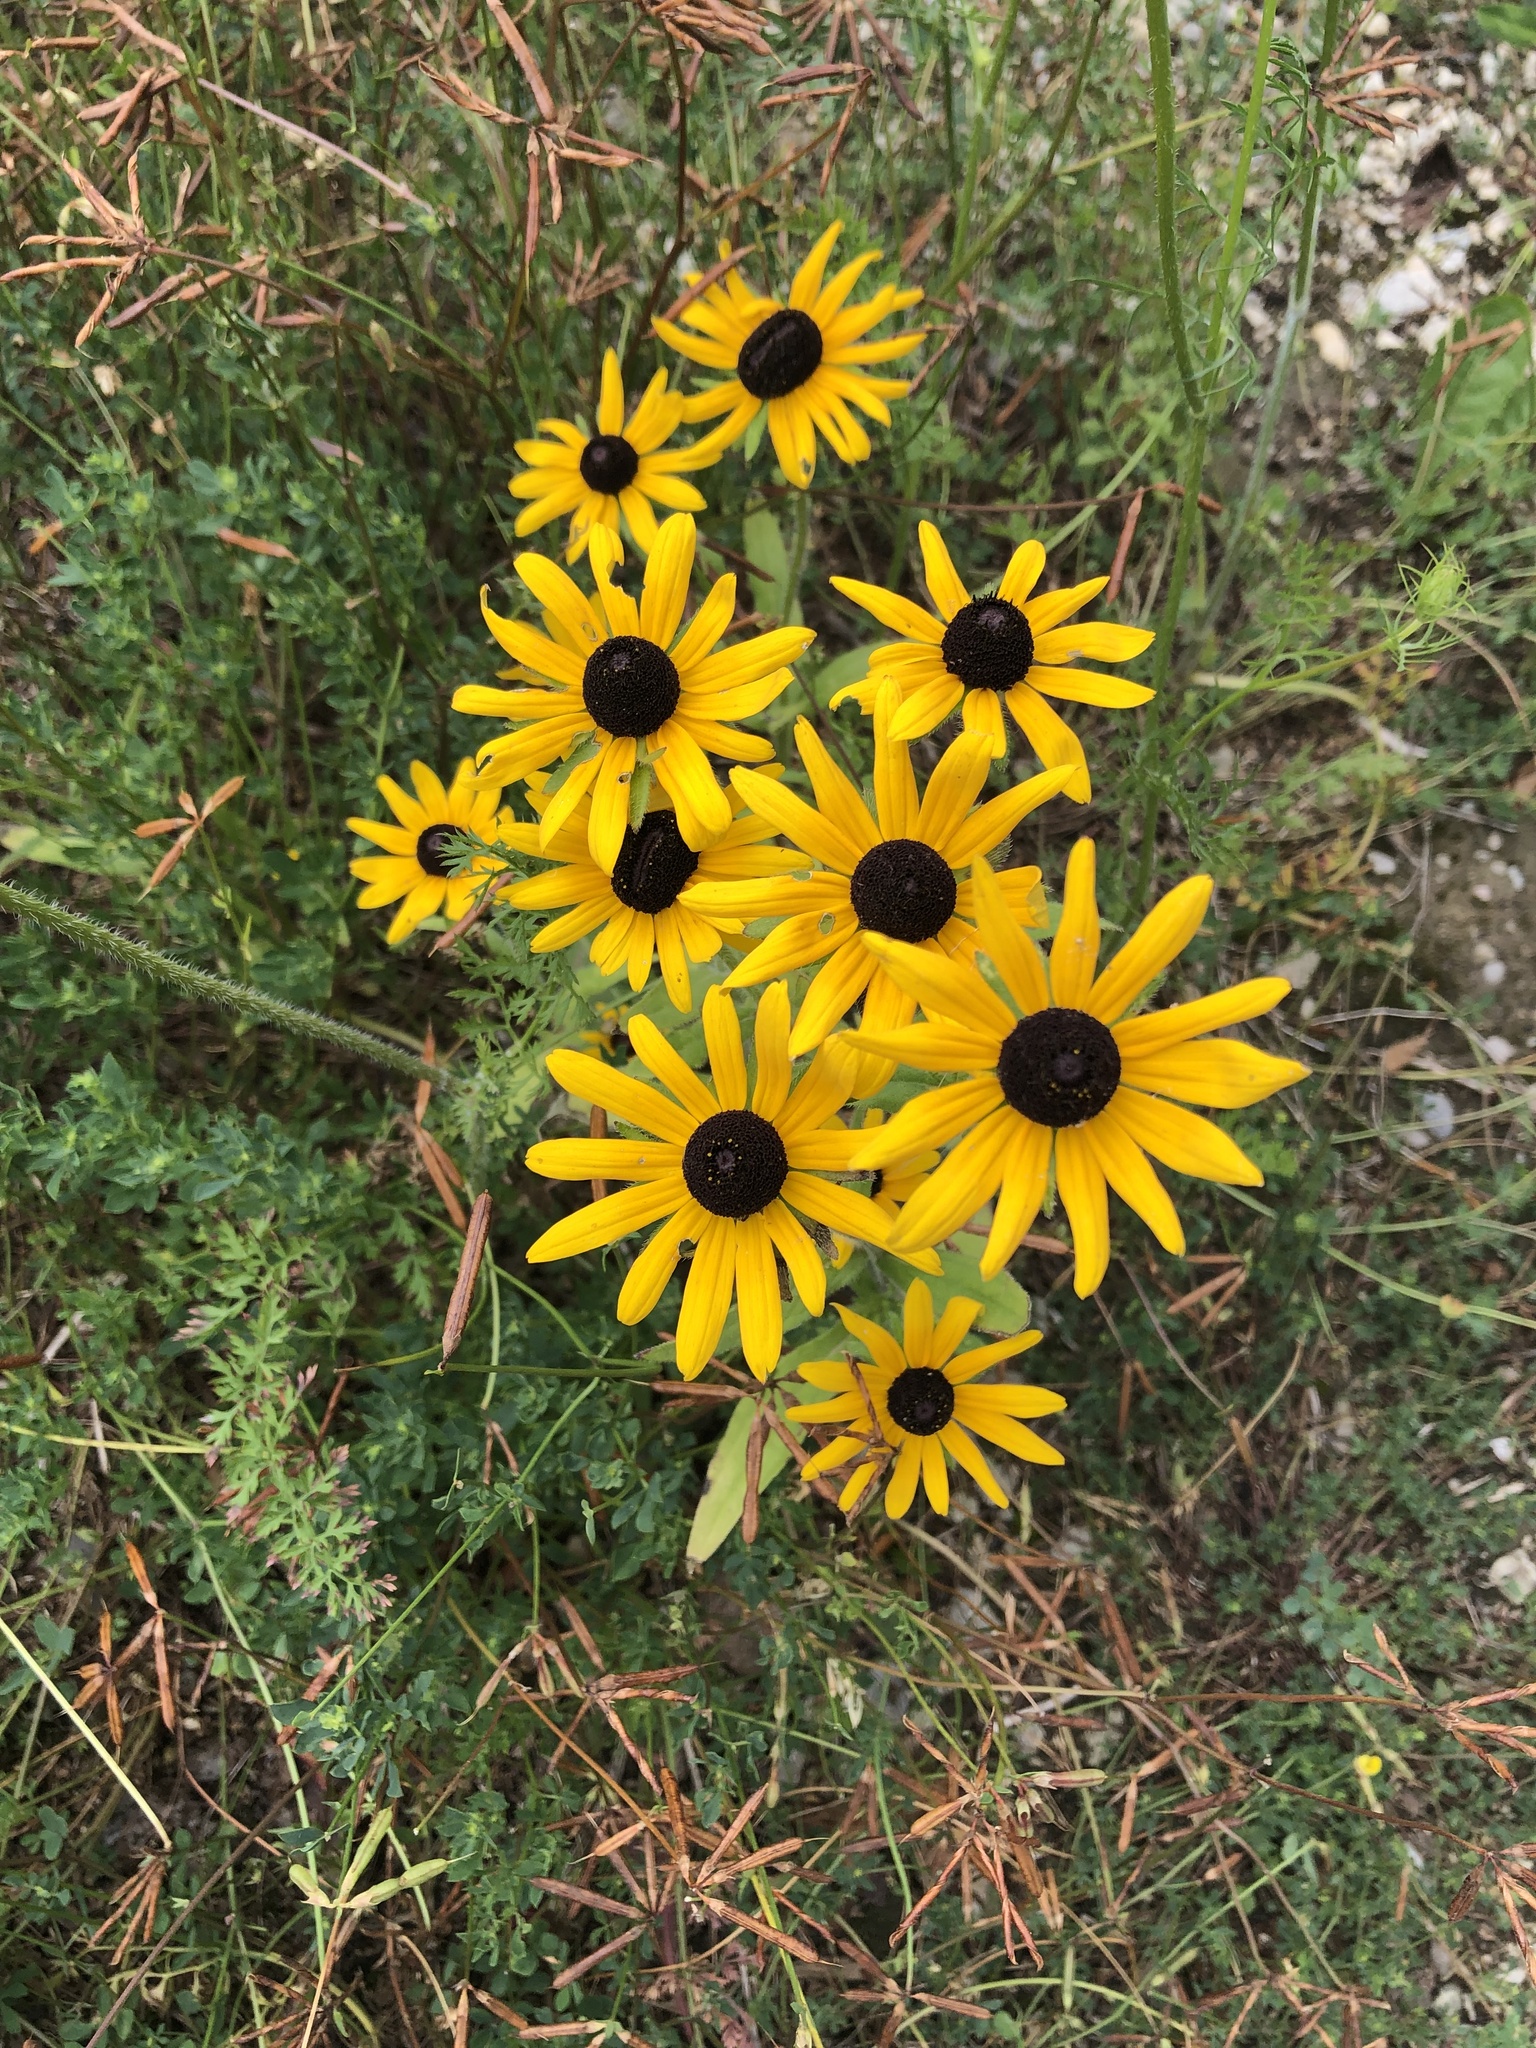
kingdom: Plantae
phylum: Tracheophyta
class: Magnoliopsida
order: Asterales
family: Asteraceae
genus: Rudbeckia
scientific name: Rudbeckia hirta
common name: Black-eyed-susan
